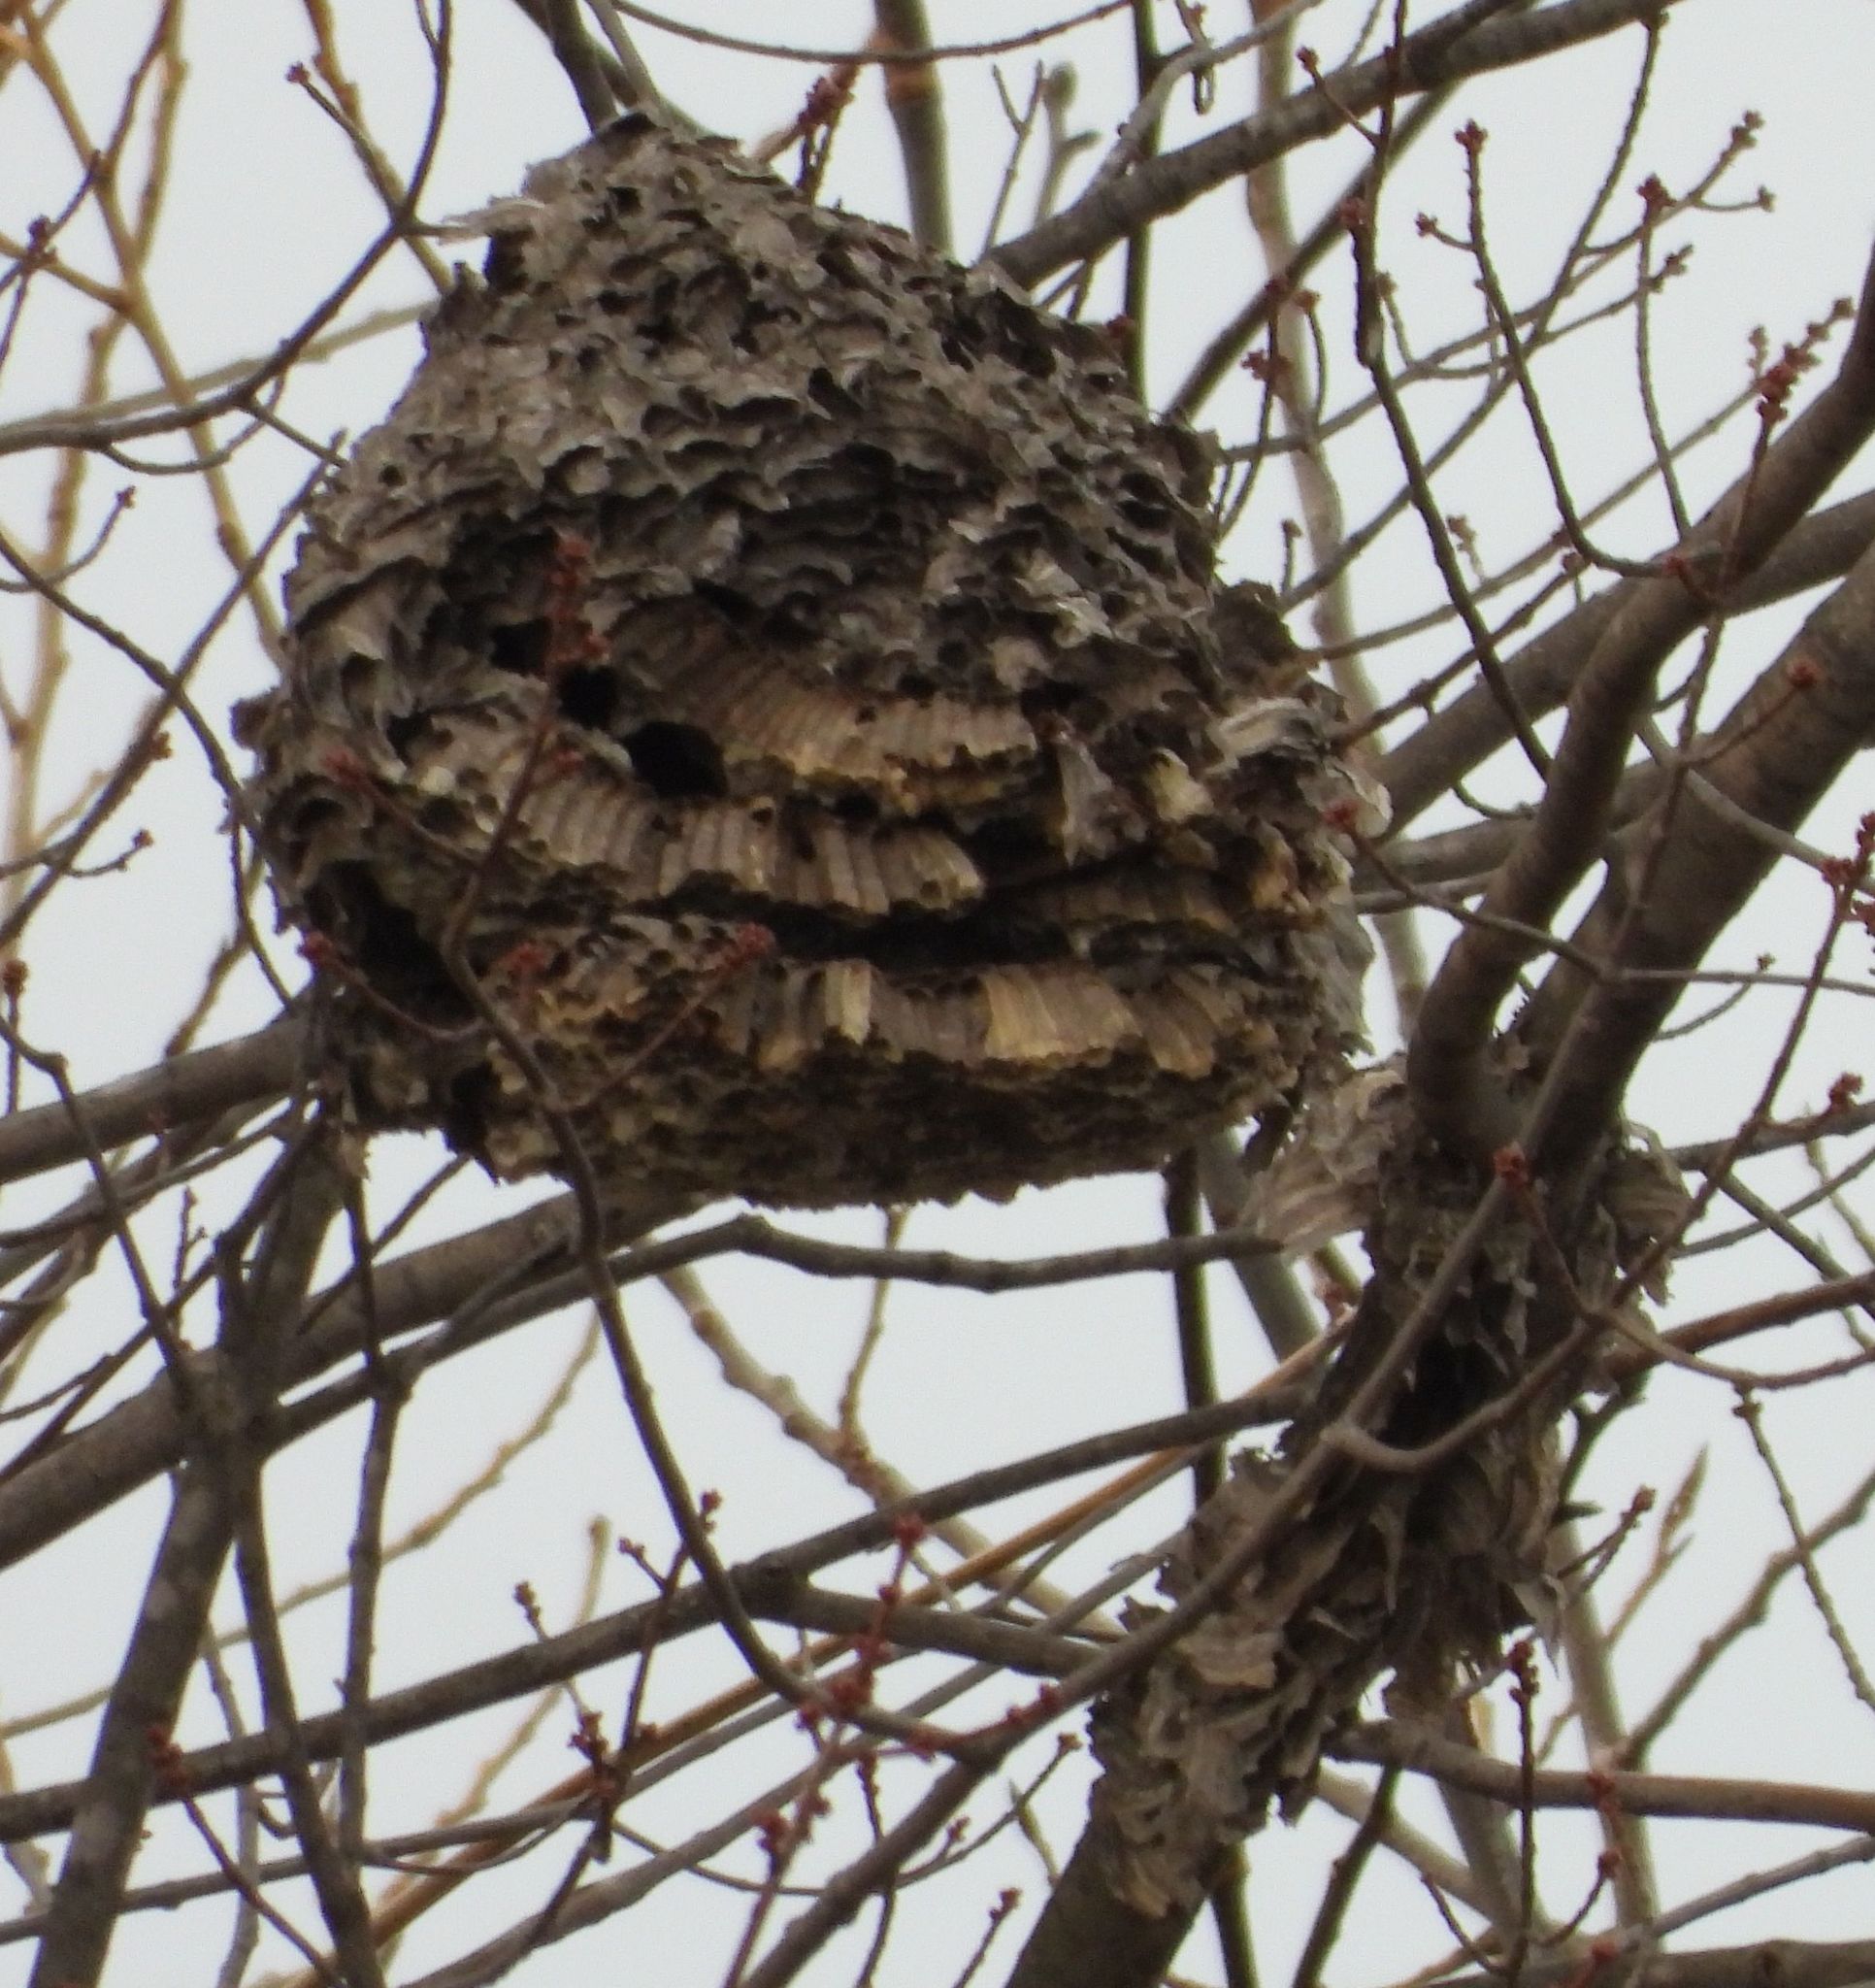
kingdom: Animalia
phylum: Arthropoda
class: Insecta
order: Hymenoptera
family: Vespidae
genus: Dolichovespula
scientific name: Dolichovespula
